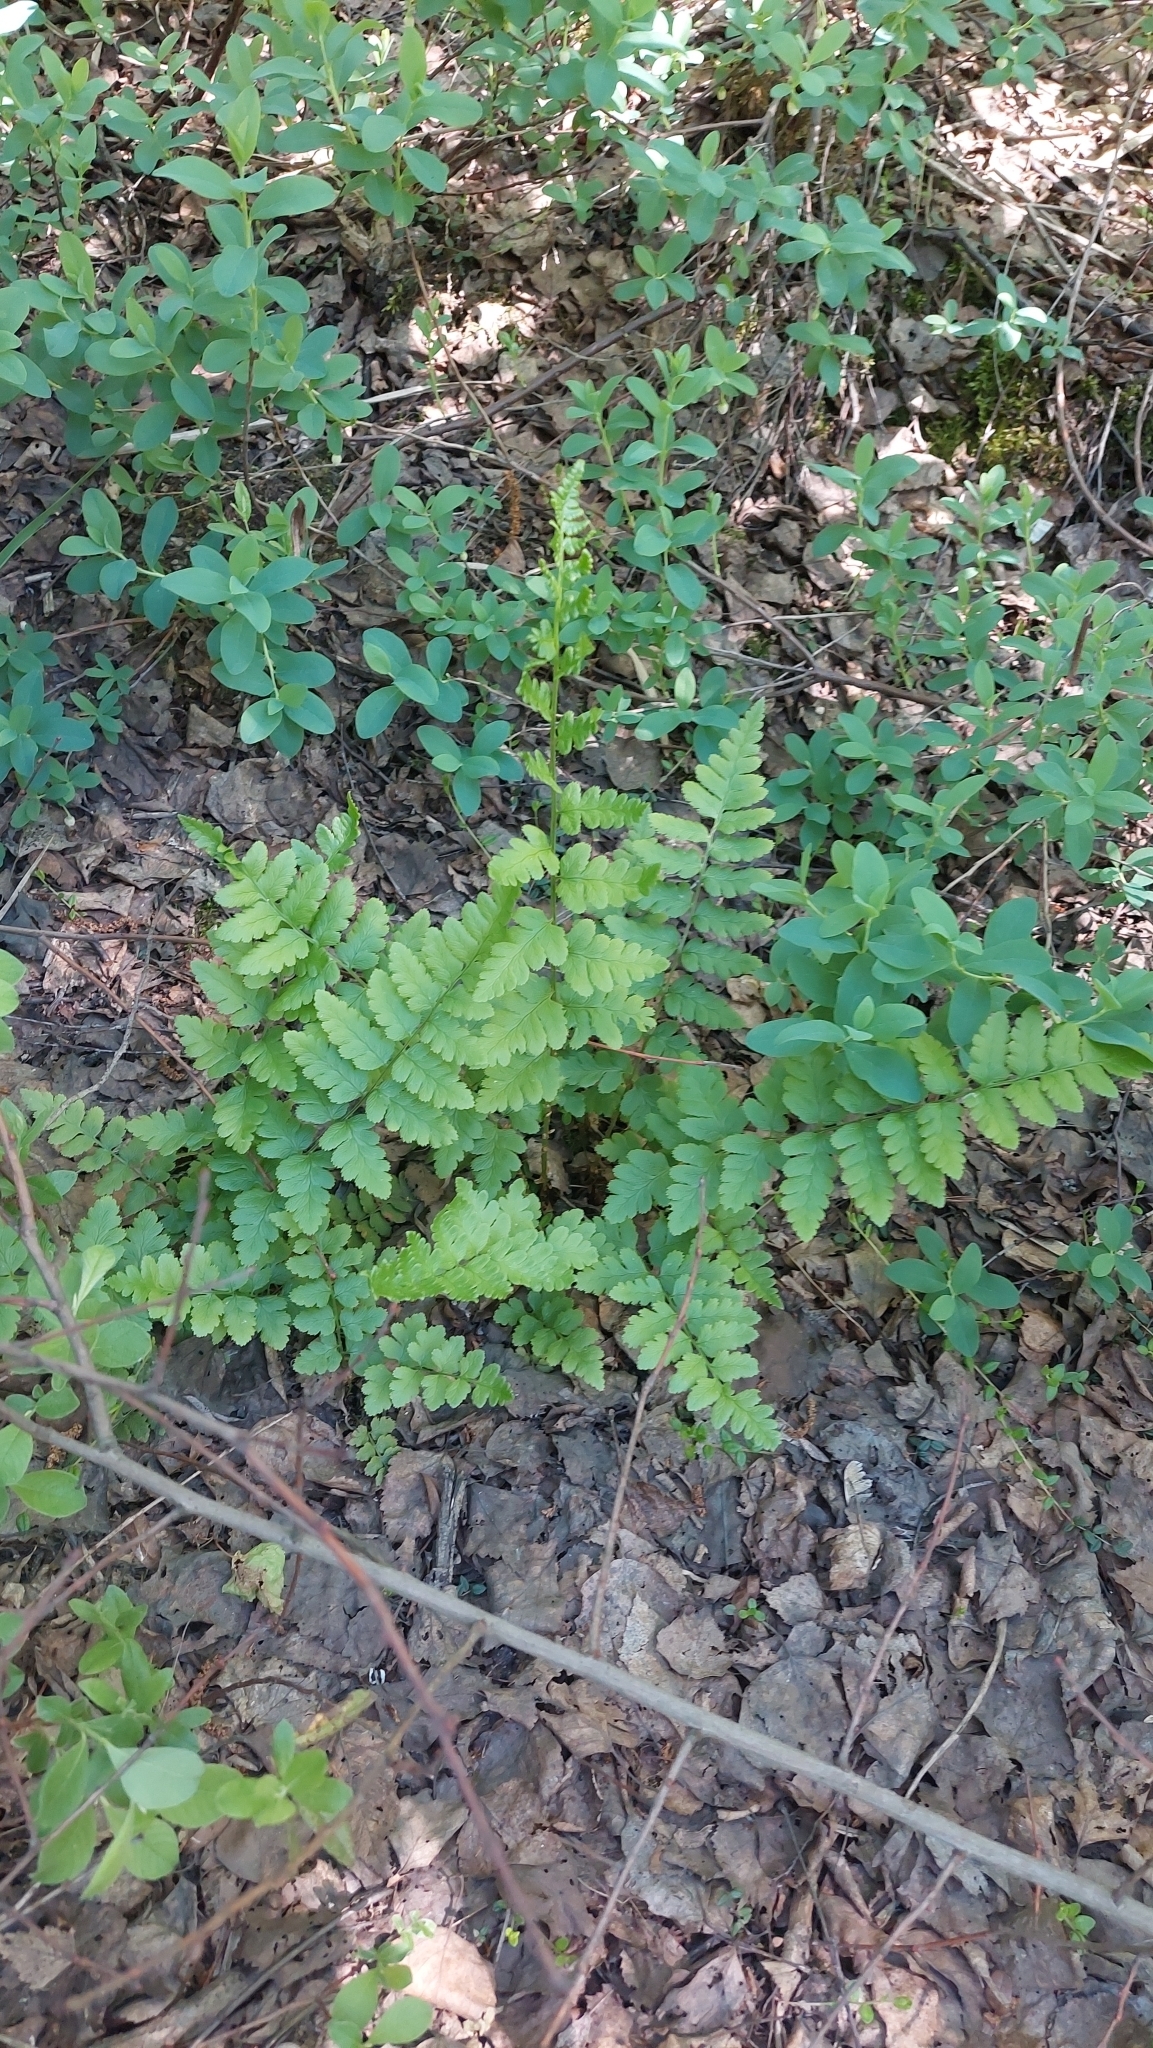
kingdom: Plantae
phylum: Tracheophyta
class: Polypodiopsida
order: Polypodiales
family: Dryopteridaceae
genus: Dryopteris
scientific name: Dryopteris cristata
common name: Crested wood fern
